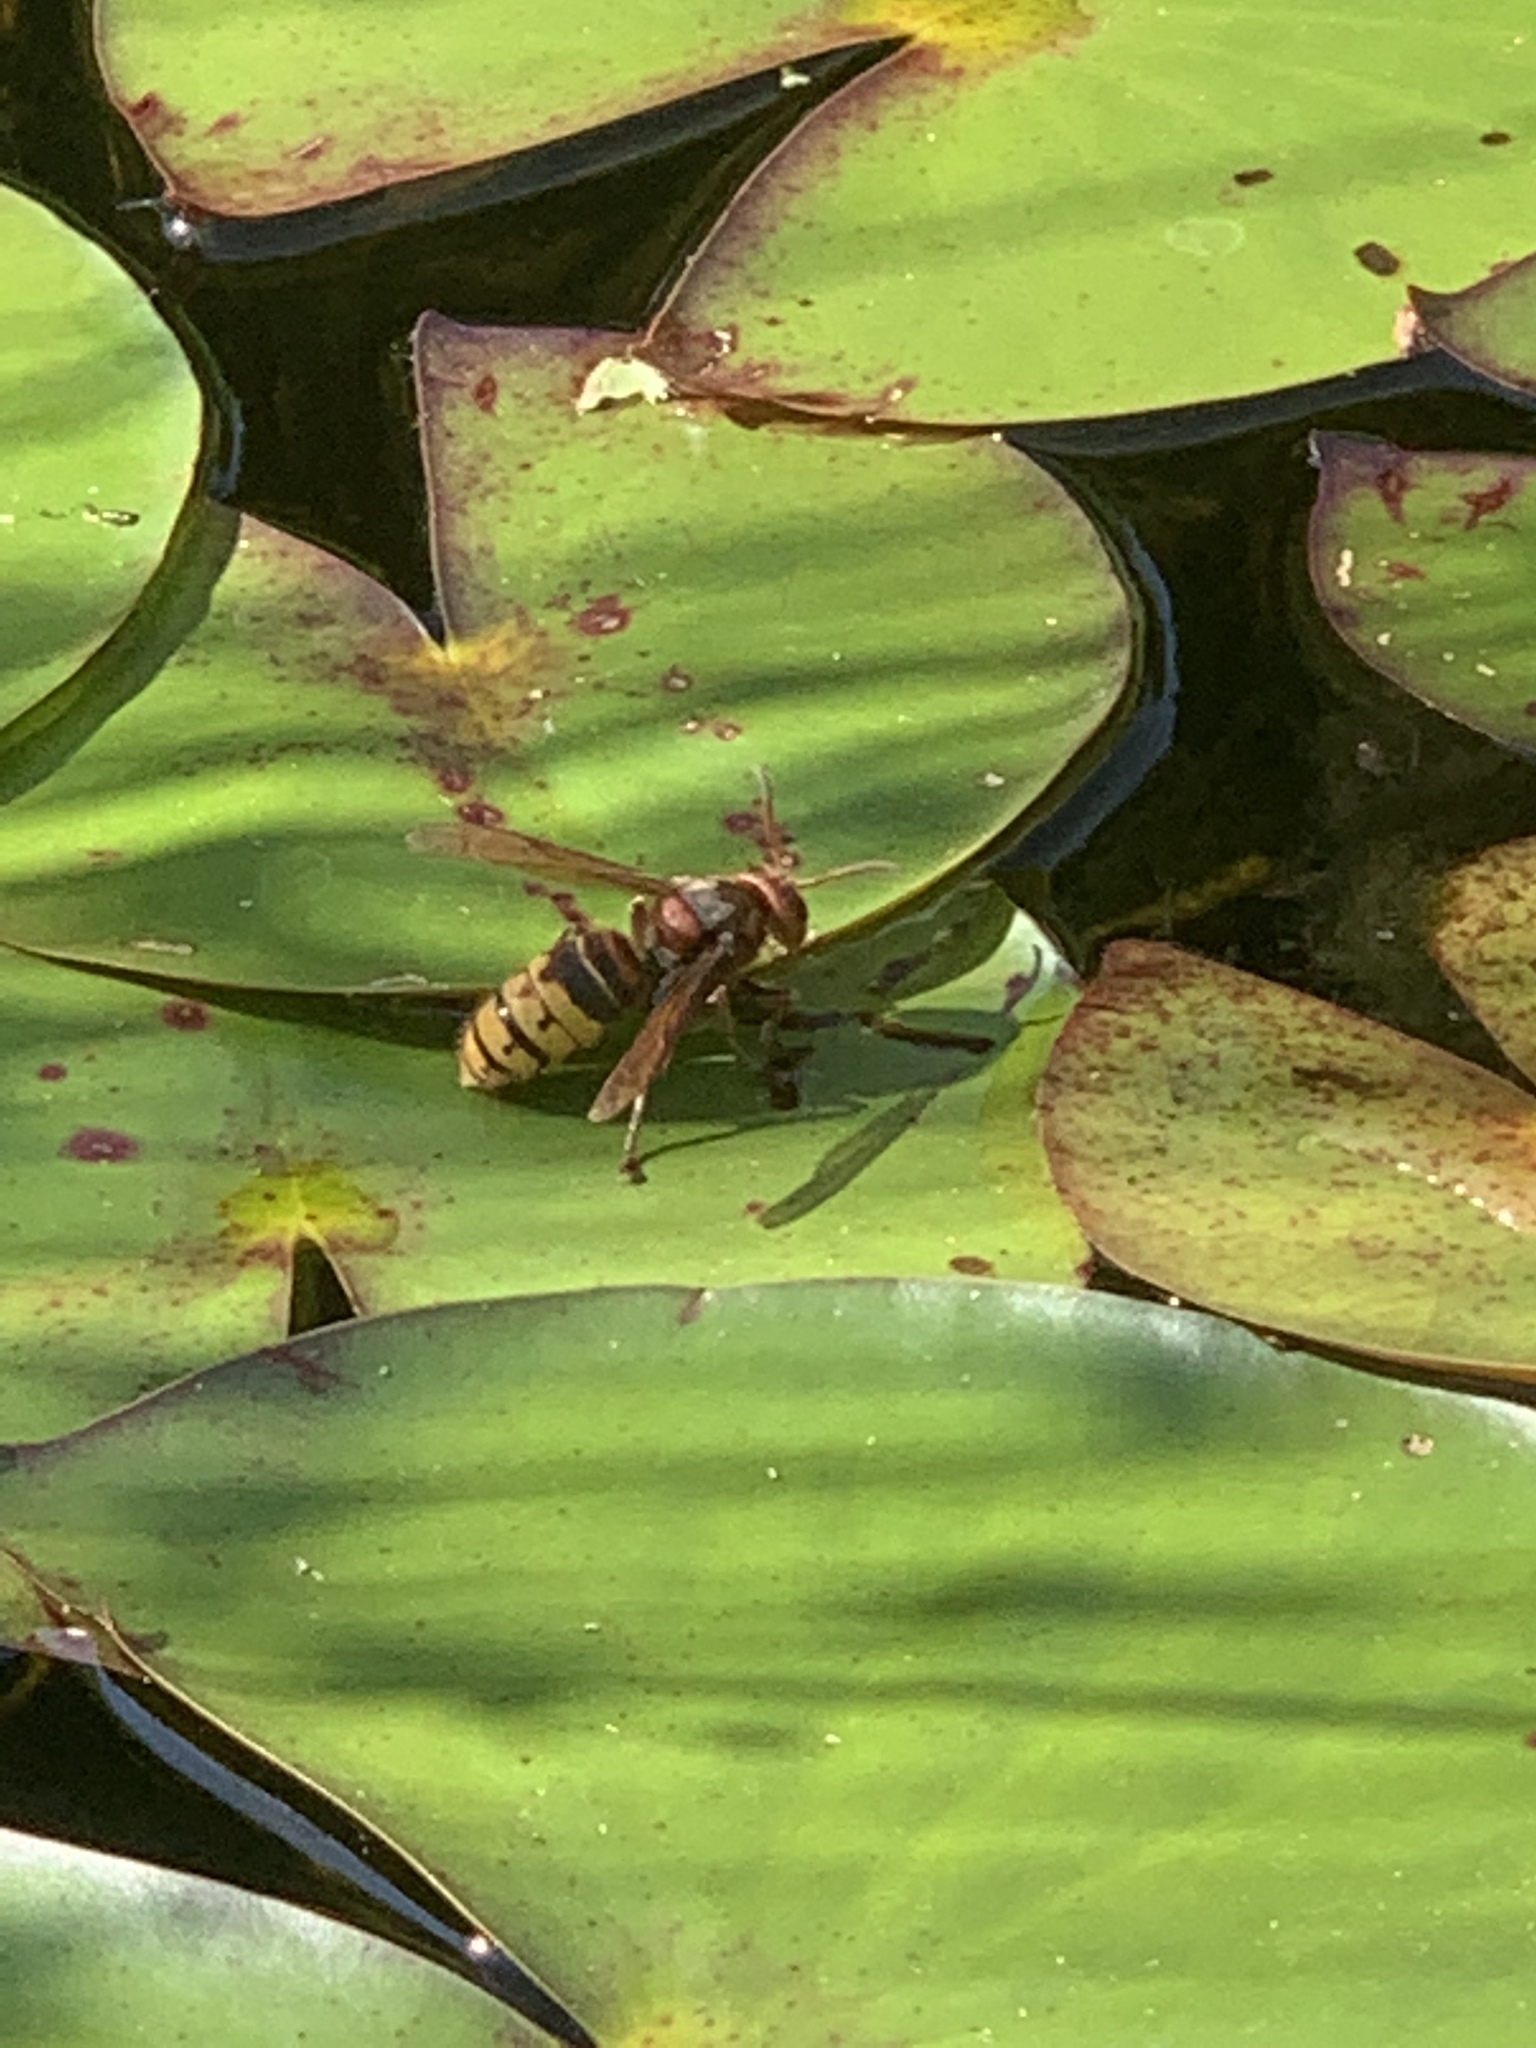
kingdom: Animalia
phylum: Arthropoda
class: Insecta
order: Hymenoptera
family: Vespidae
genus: Vespa
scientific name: Vespa crabro
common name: Hornet
